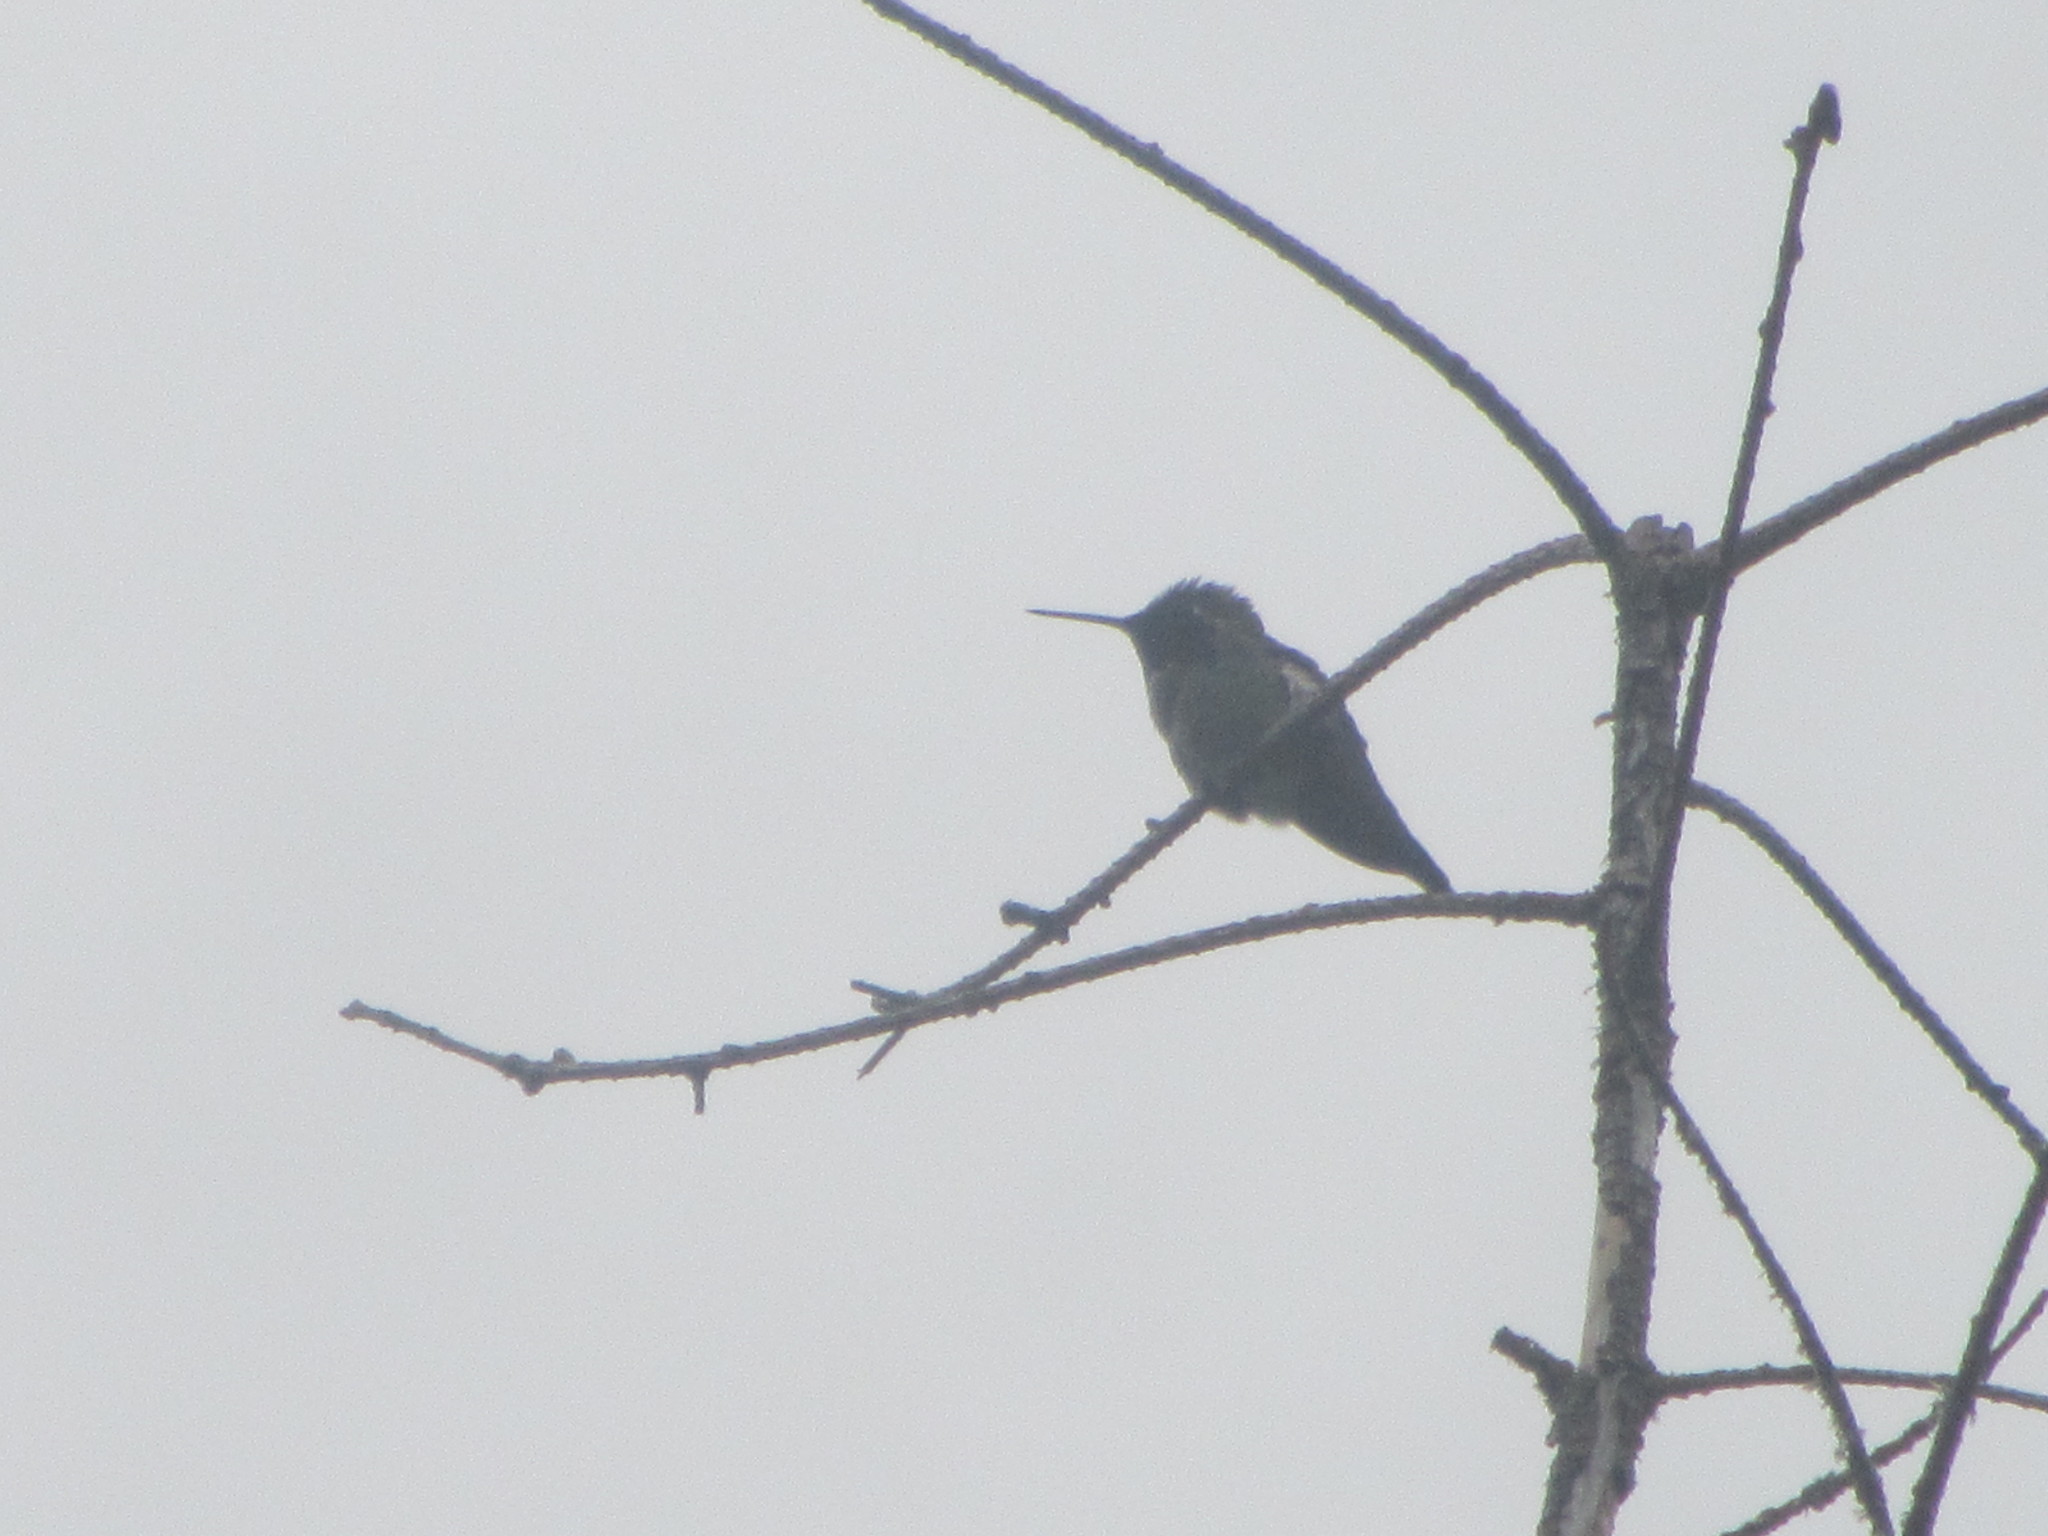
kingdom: Animalia
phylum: Chordata
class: Aves
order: Apodiformes
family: Trochilidae
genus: Calypte
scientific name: Calypte anna
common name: Anna's hummingbird
